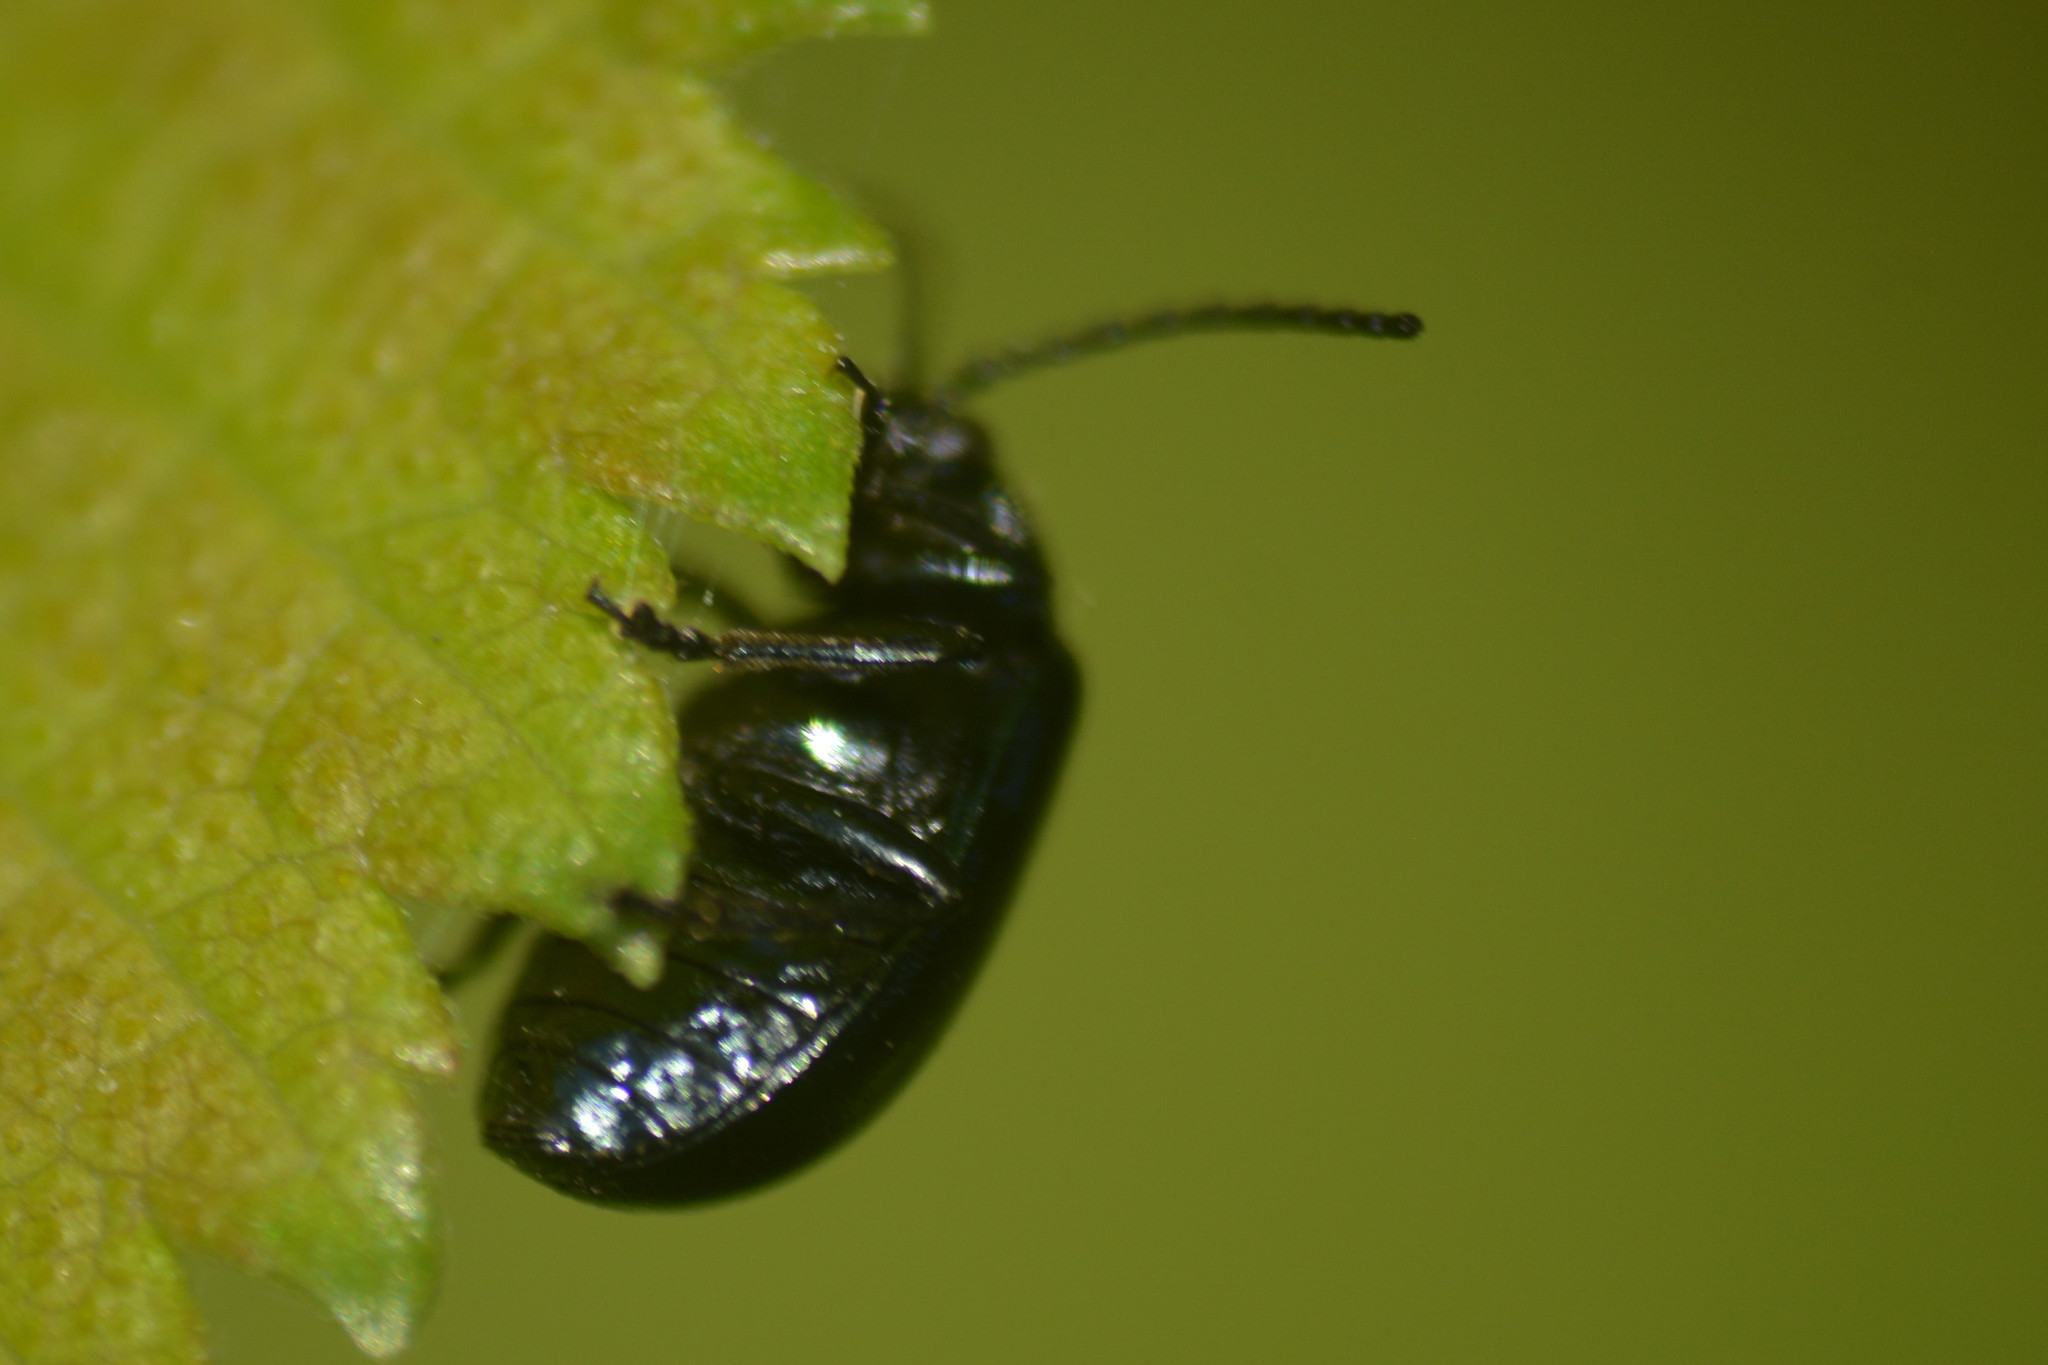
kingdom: Animalia
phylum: Arthropoda
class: Insecta
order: Coleoptera
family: Chrysomelidae
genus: Agelastica
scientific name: Agelastica alni
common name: Alder leaf beetle
